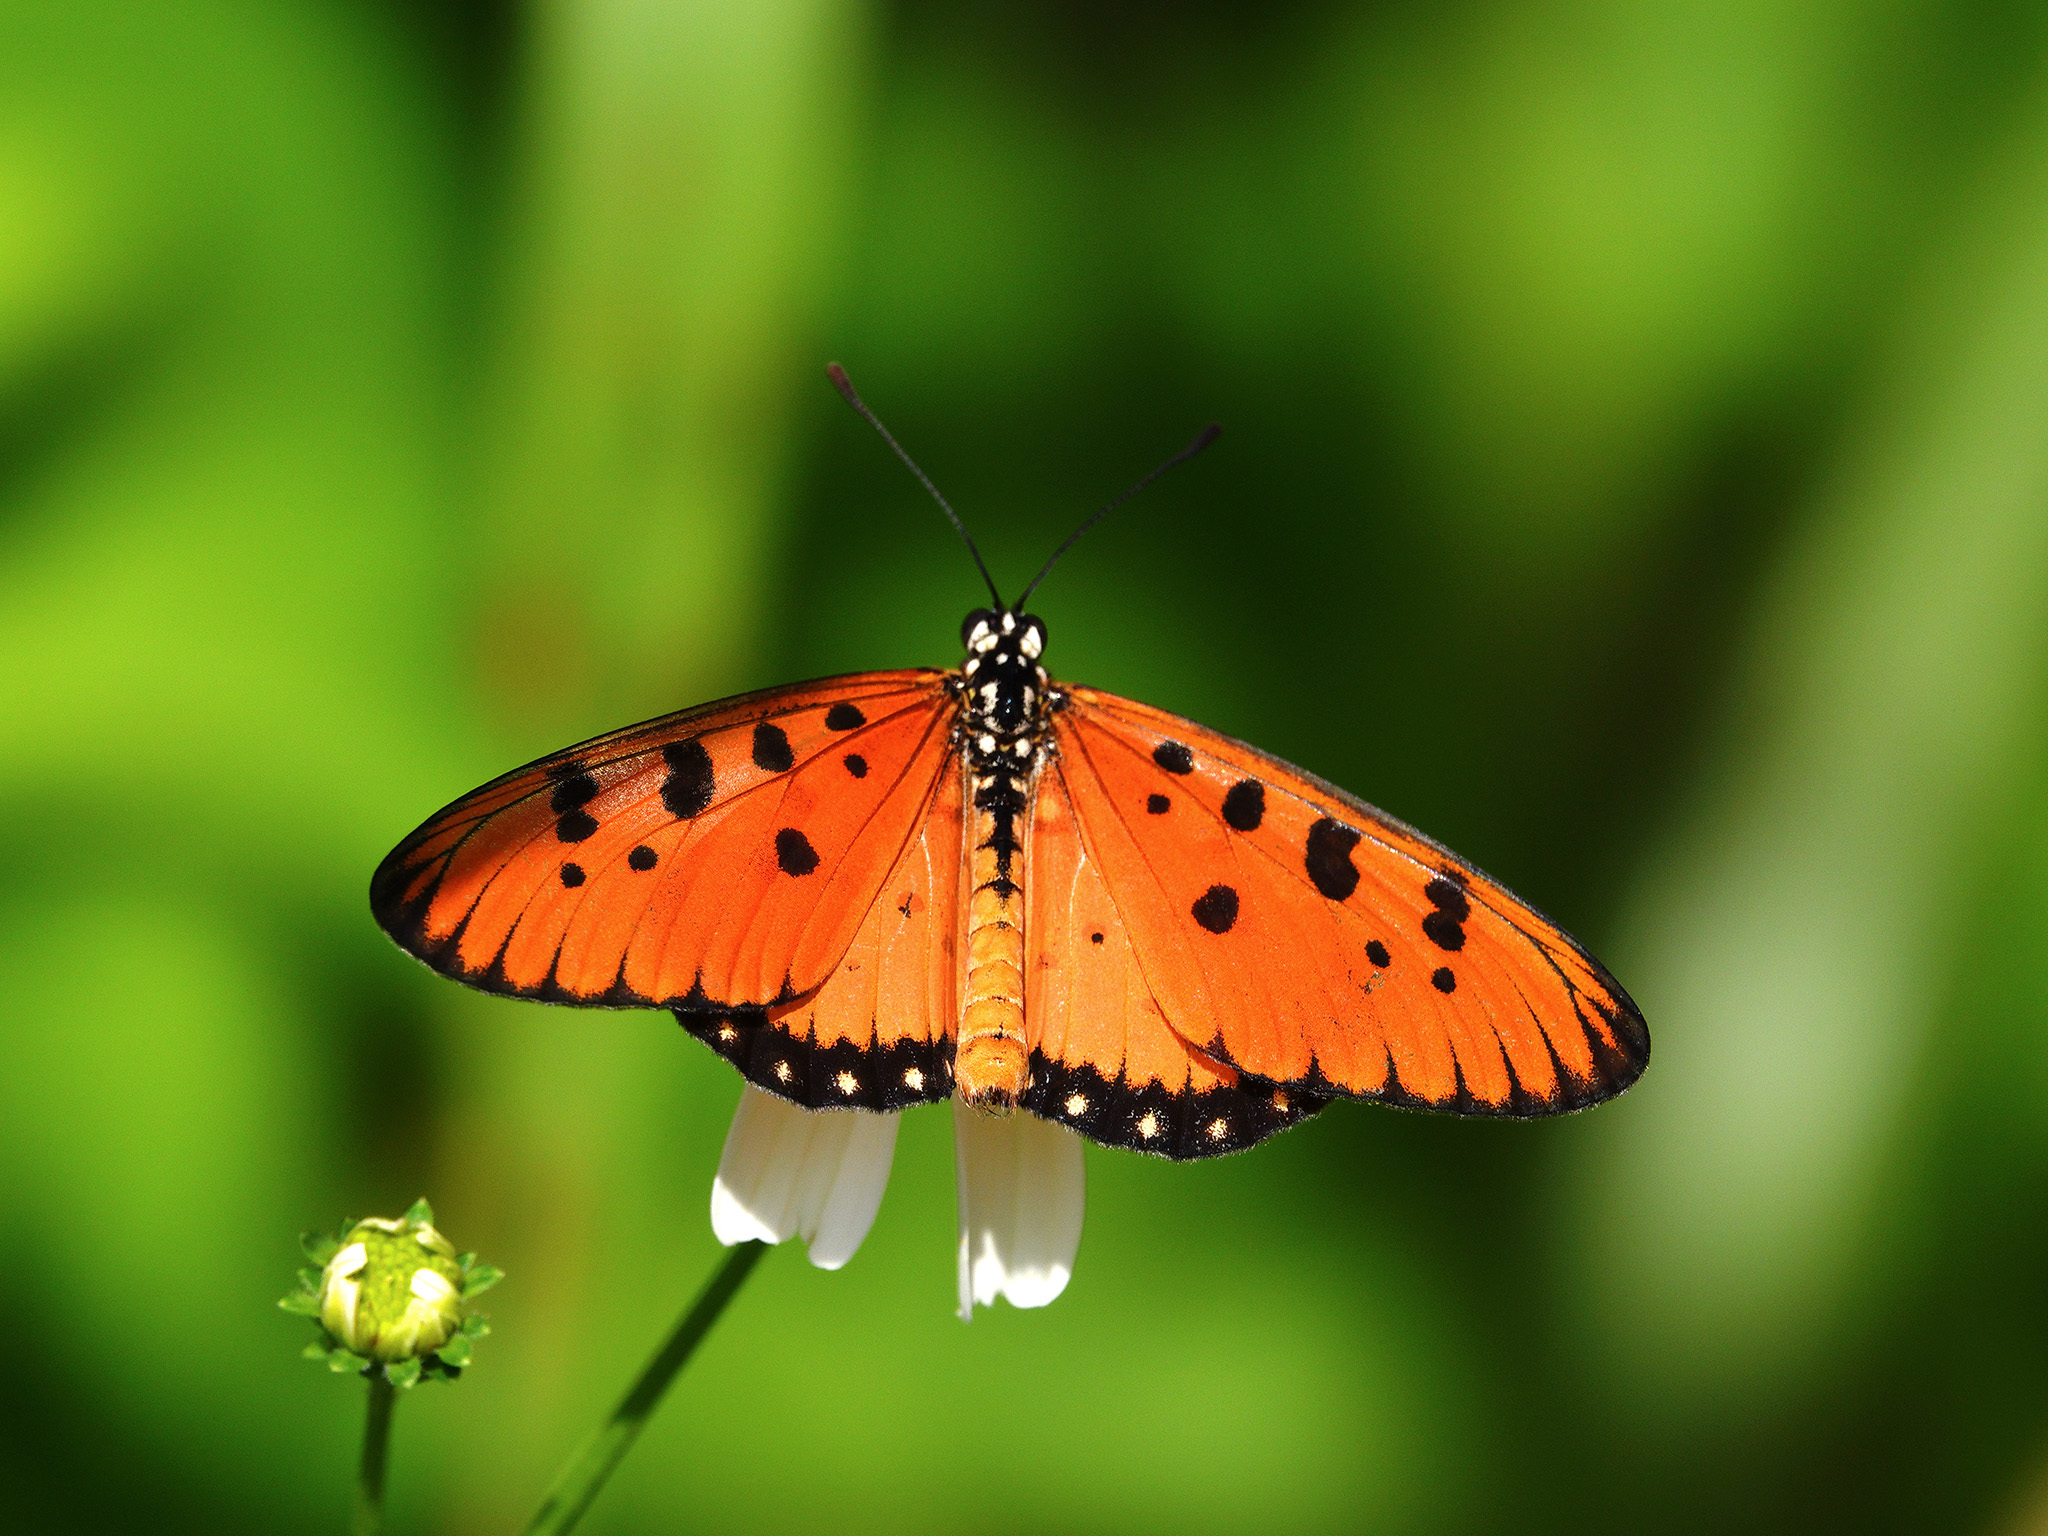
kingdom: Animalia
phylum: Arthropoda
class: Insecta
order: Lepidoptera
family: Nymphalidae
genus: Acraea
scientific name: Acraea terpsicore
